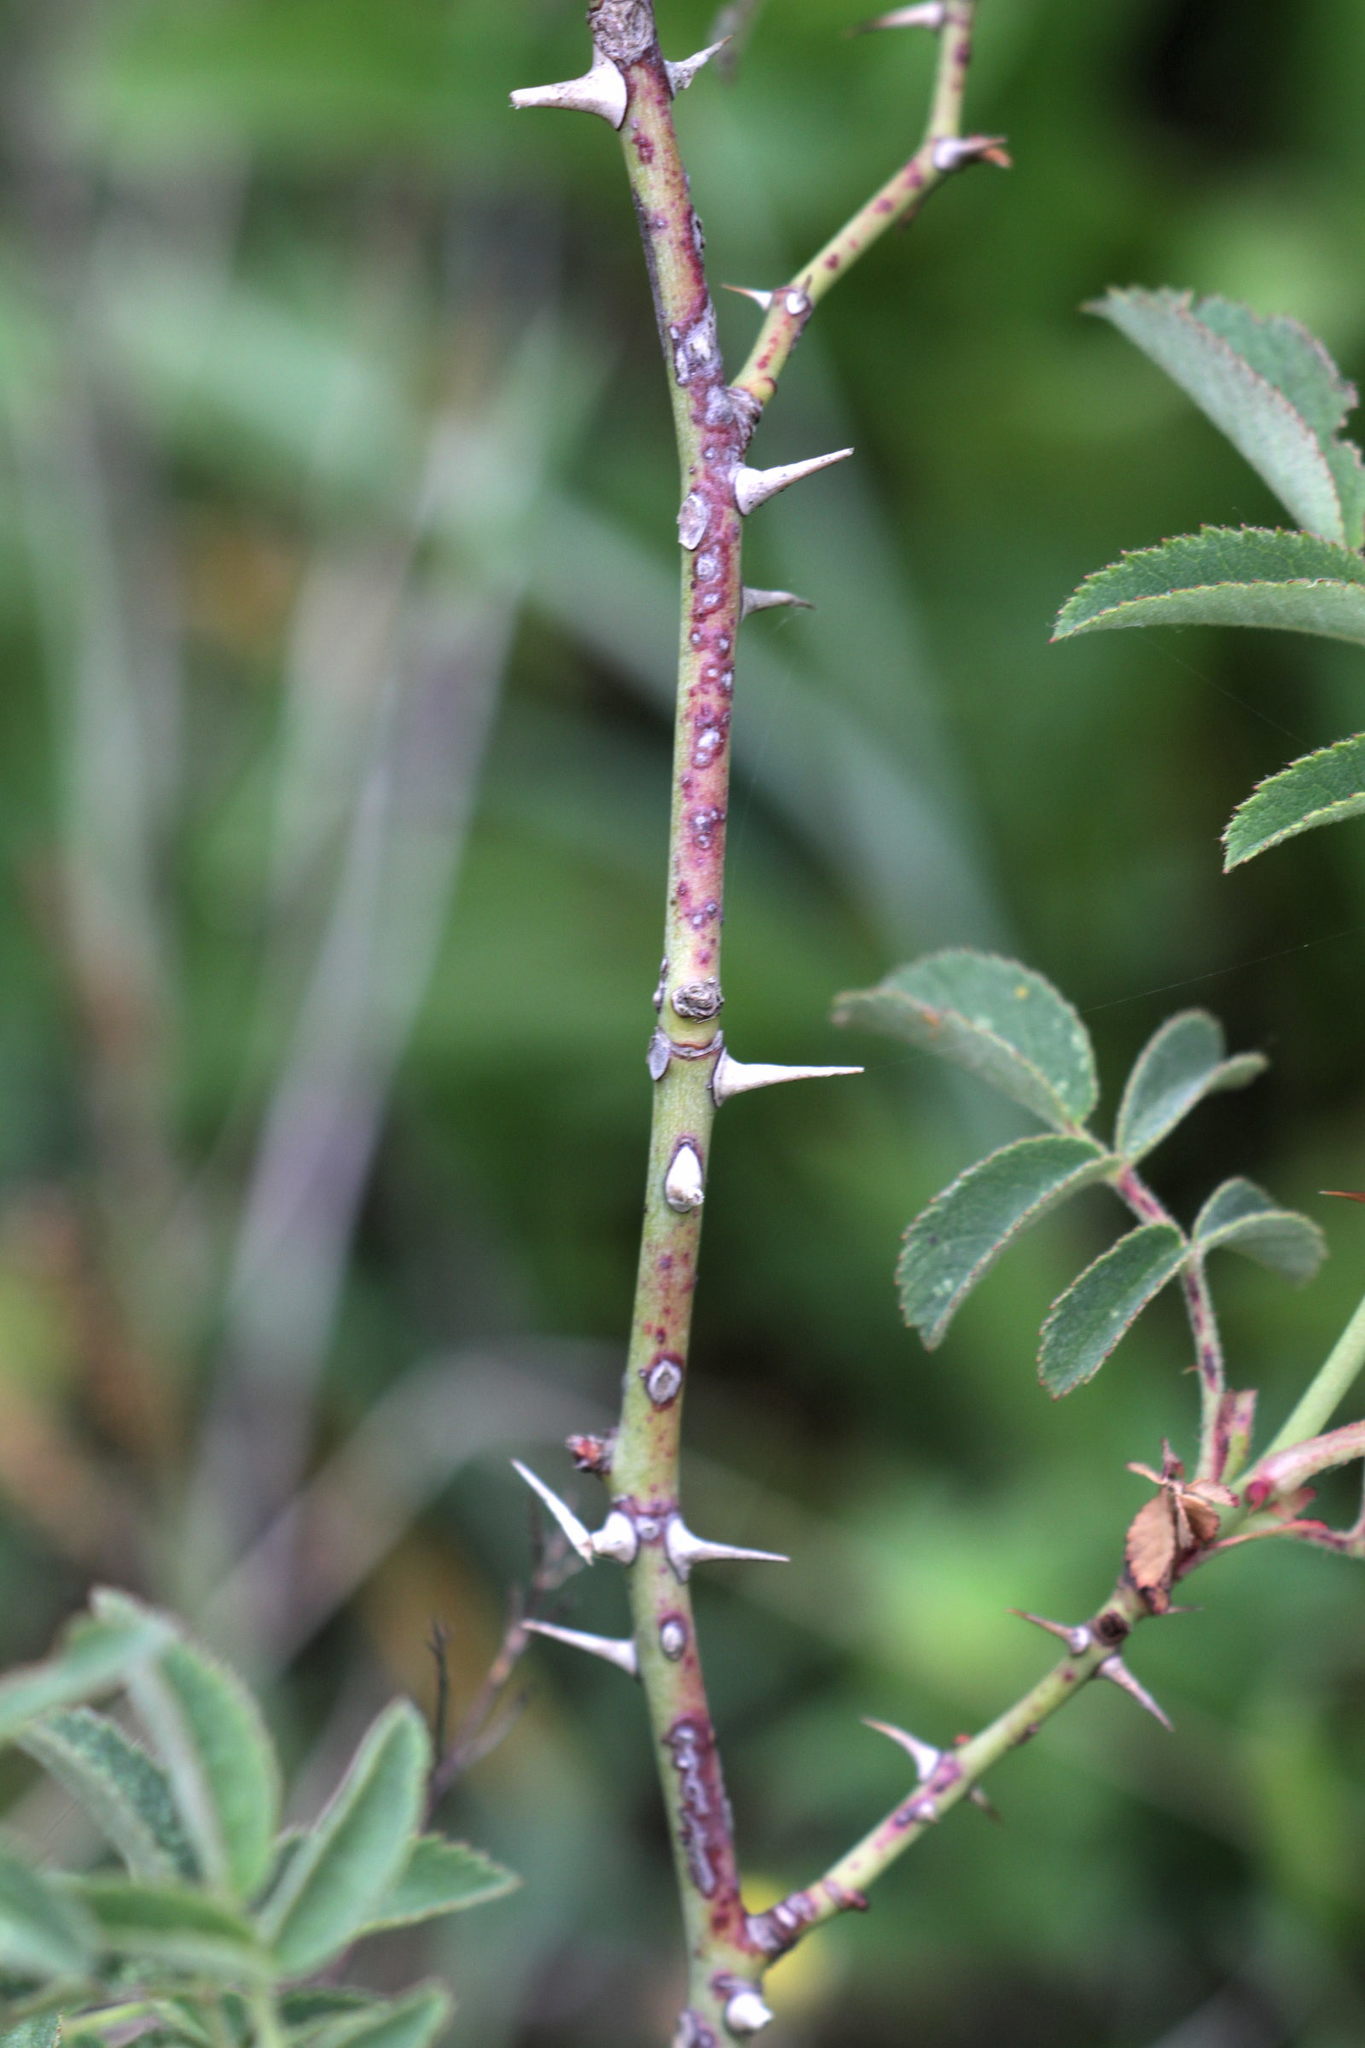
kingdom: Plantae
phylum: Tracheophyta
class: Magnoliopsida
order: Rosales
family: Rosaceae
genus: Rosa
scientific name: Rosa rubiginosa
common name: Sweet-briar
